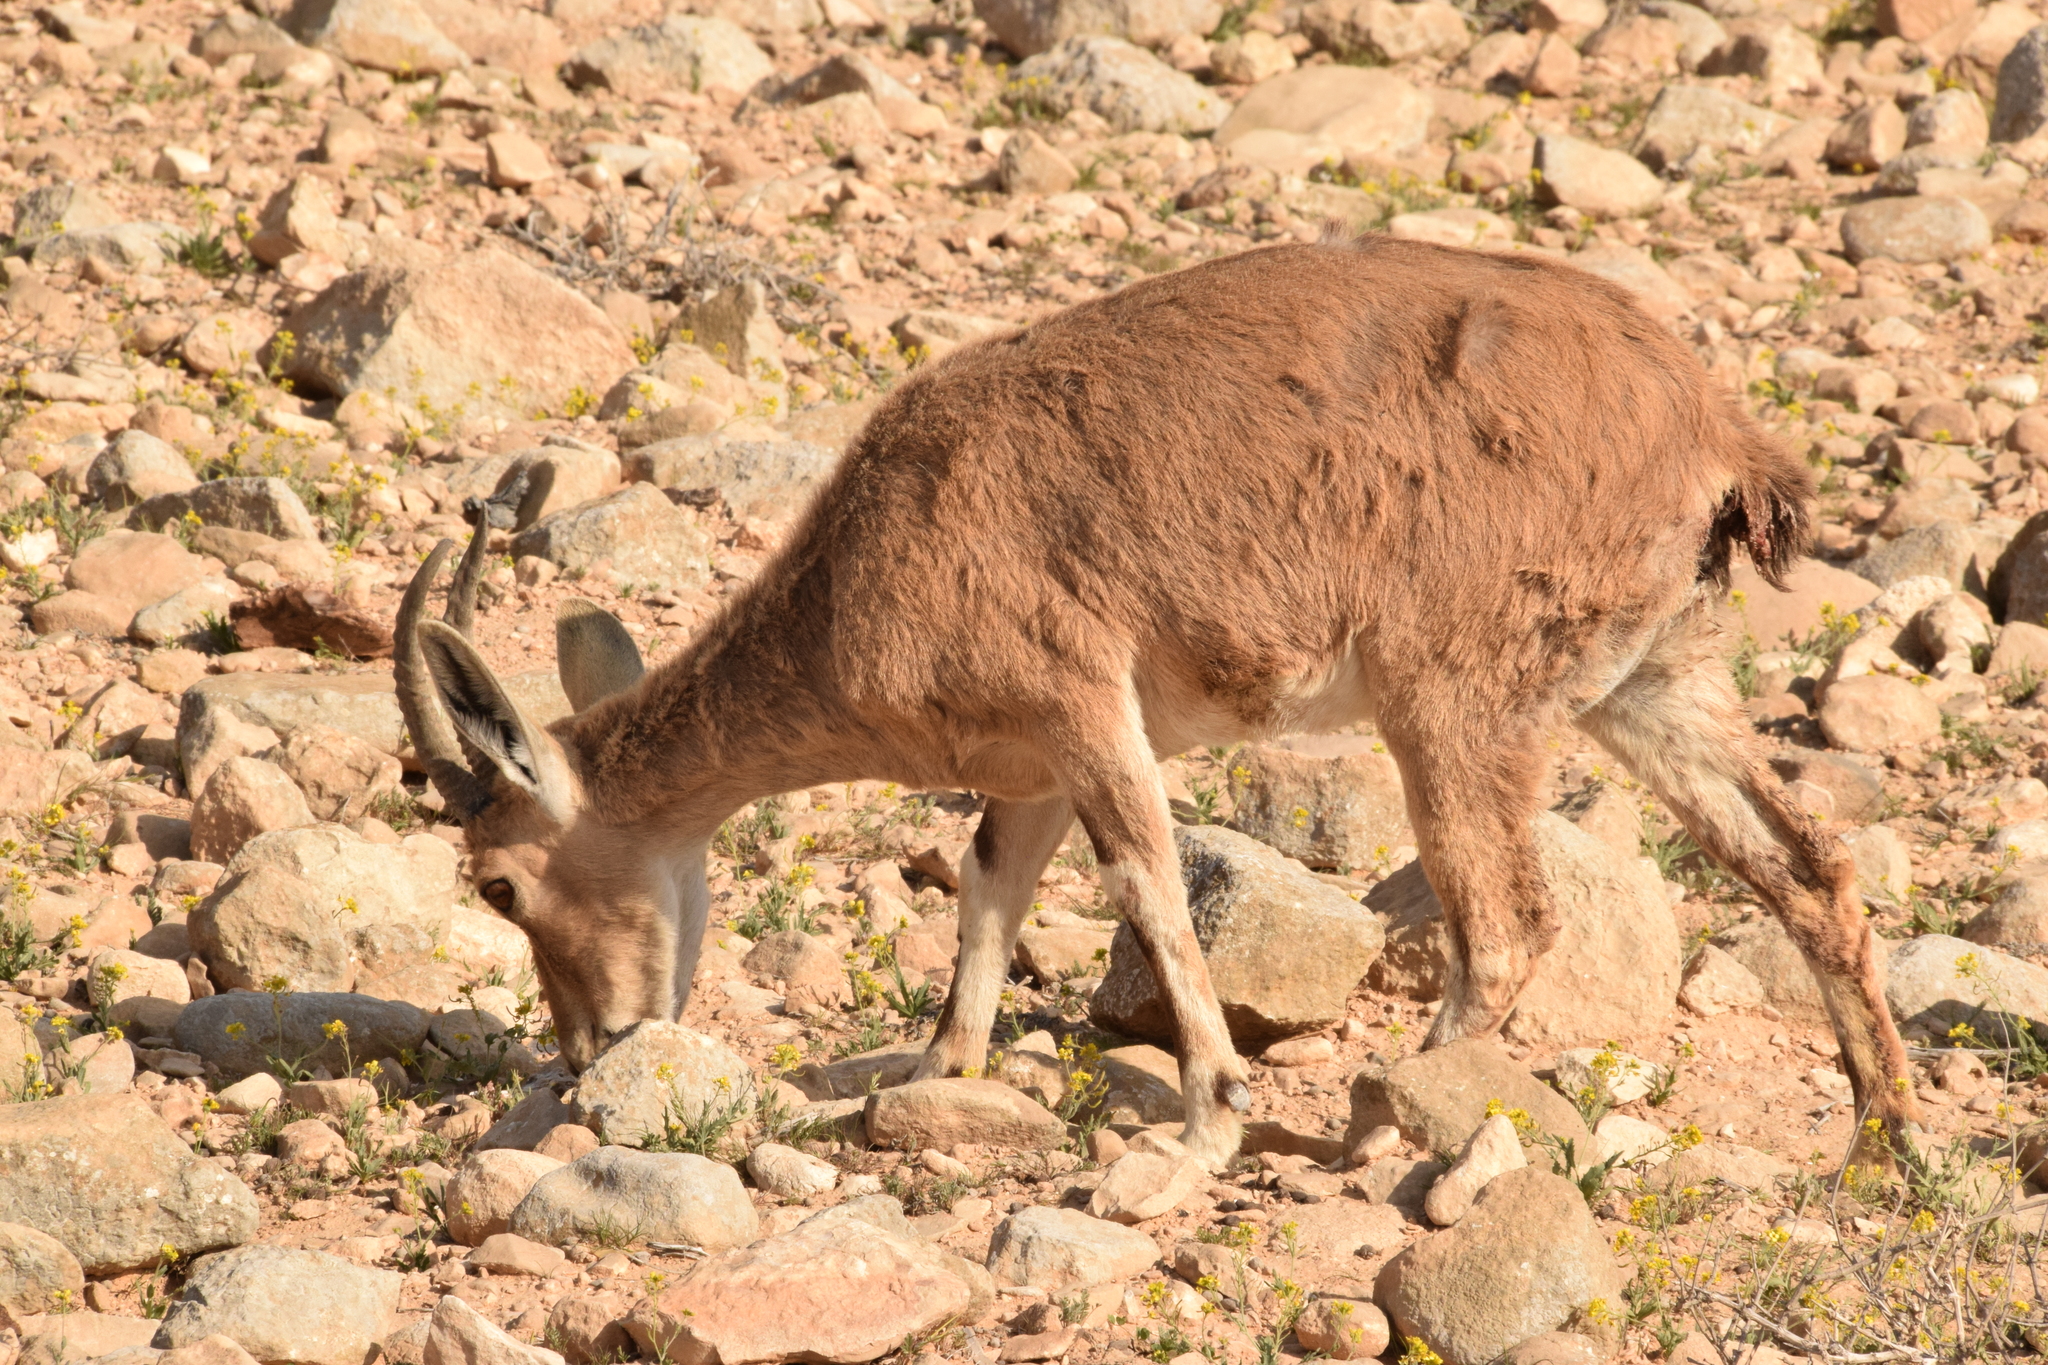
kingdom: Animalia
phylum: Chordata
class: Mammalia
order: Artiodactyla
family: Bovidae
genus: Capra
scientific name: Capra nubiana
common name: Nubian ibex
